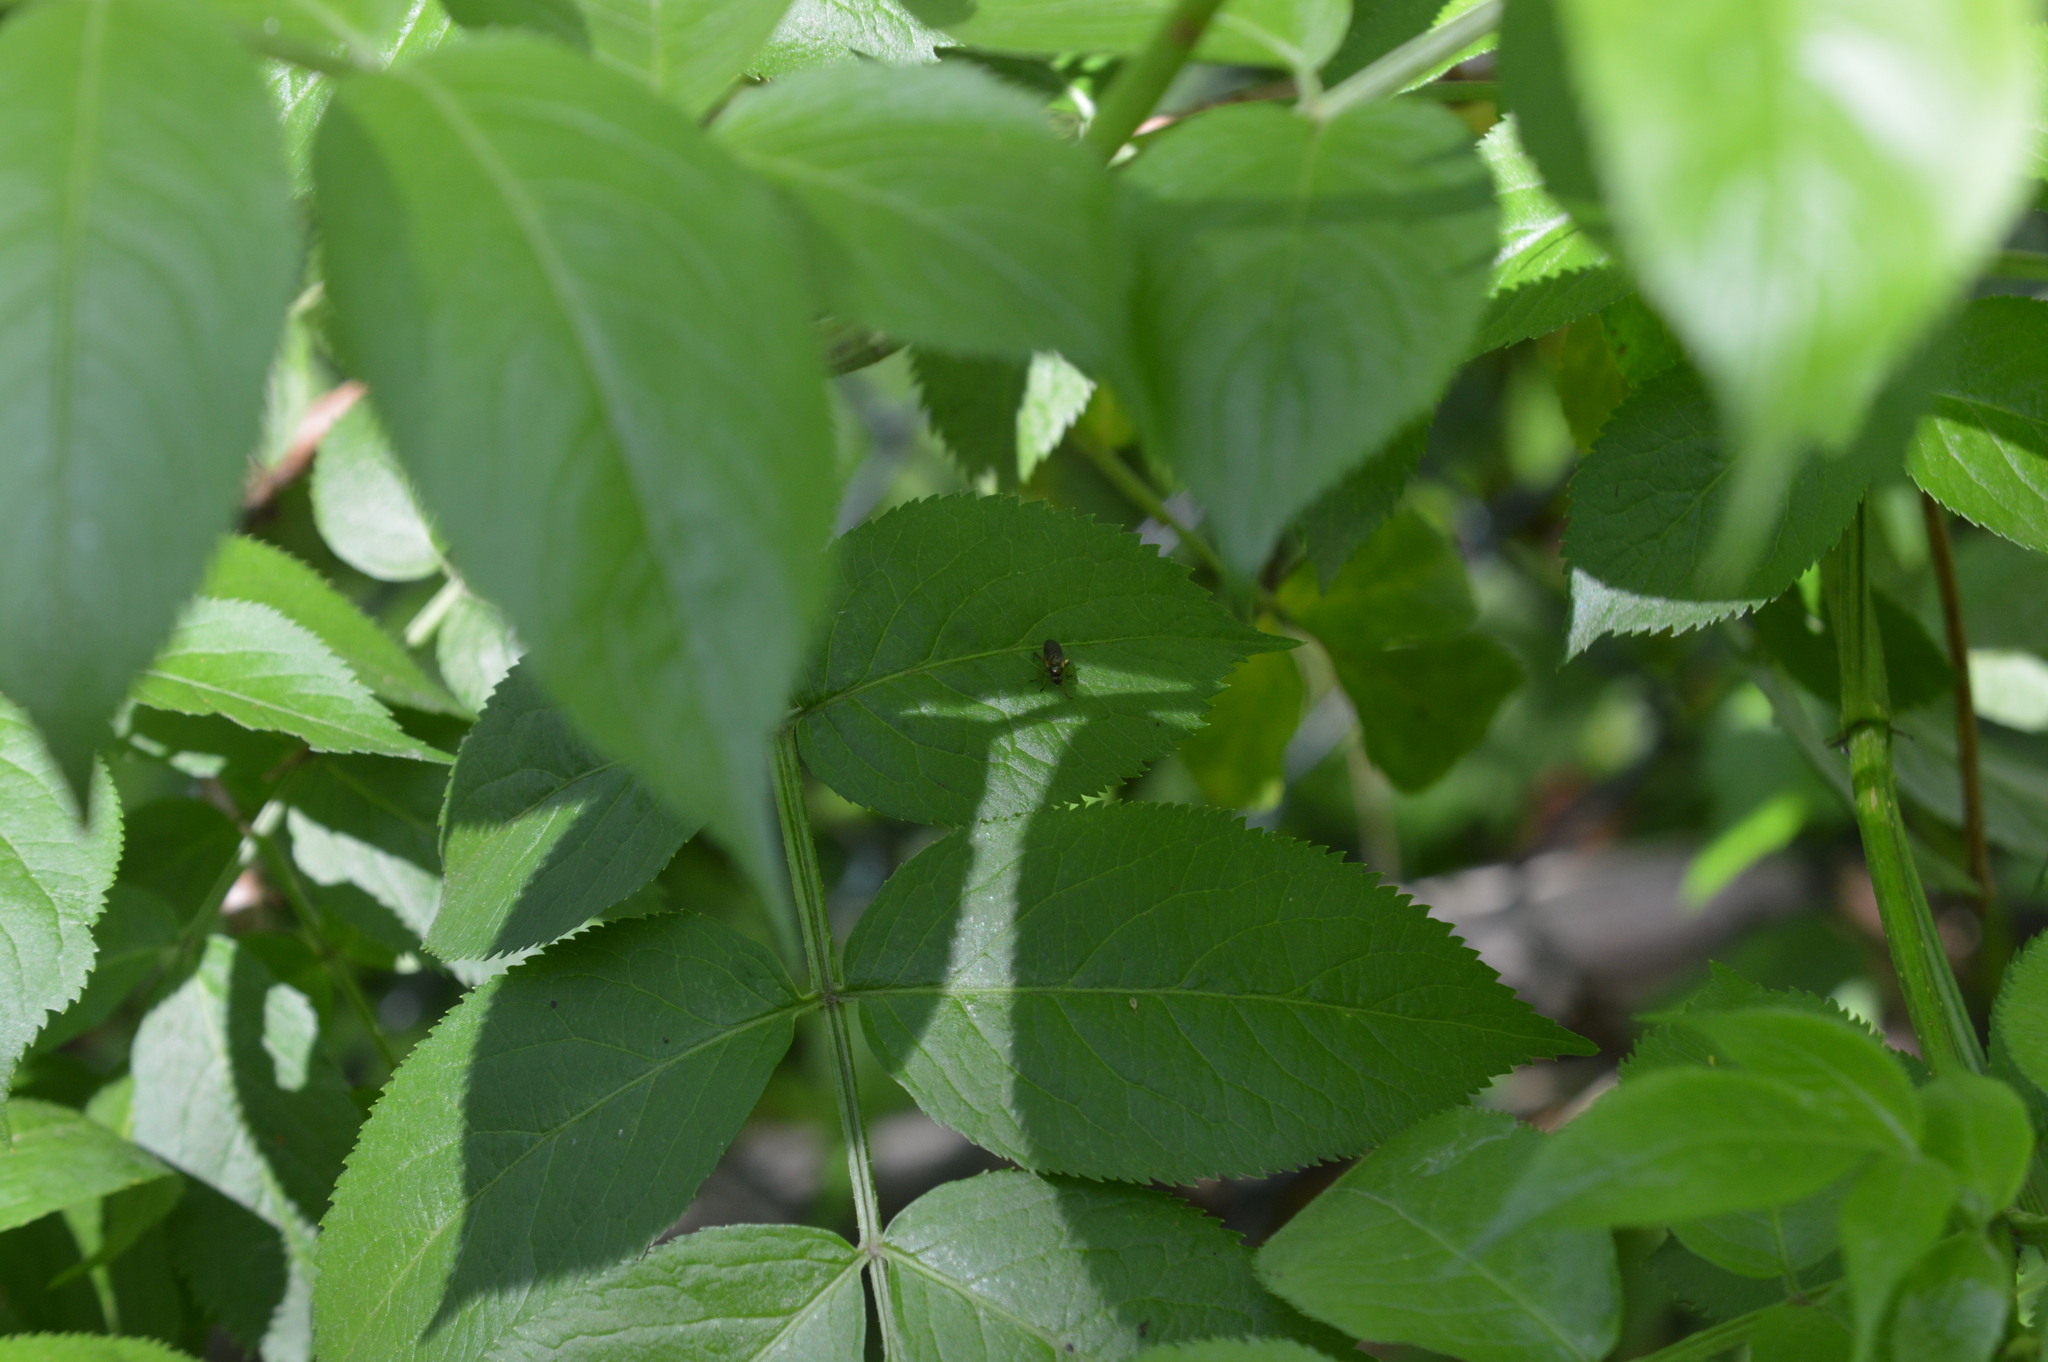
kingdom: Animalia
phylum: Arthropoda
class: Insecta
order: Diptera
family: Stratiomyidae
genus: Beris
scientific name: Beris
